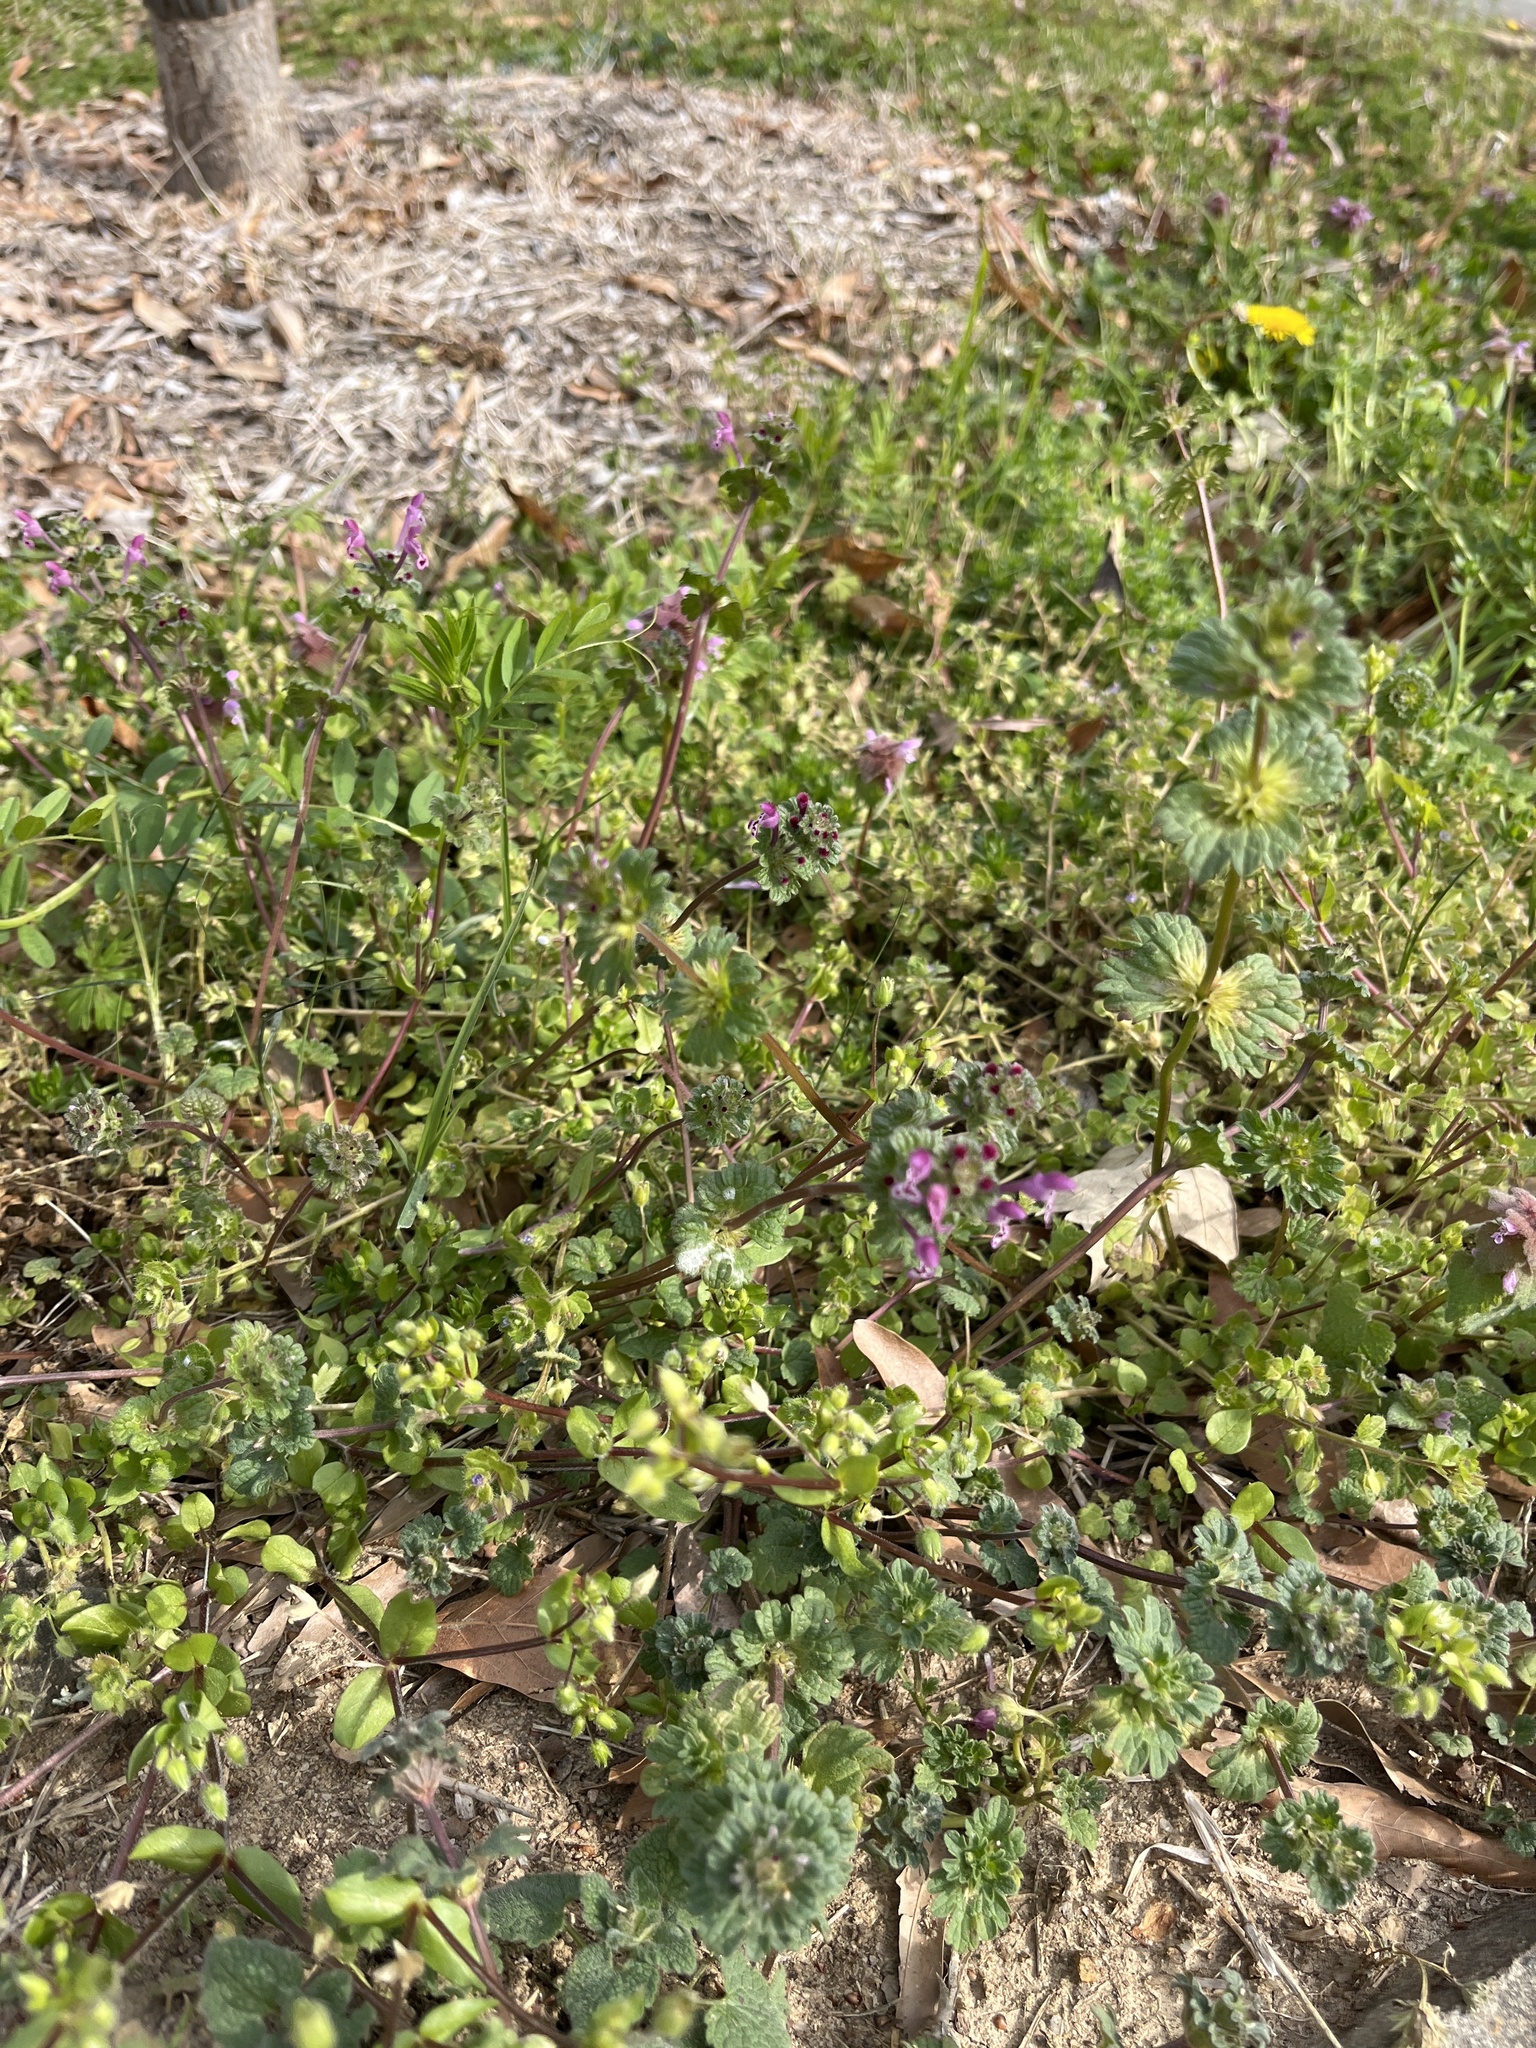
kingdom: Plantae
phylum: Tracheophyta
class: Magnoliopsida
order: Lamiales
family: Lamiaceae
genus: Lamium
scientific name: Lamium amplexicaule
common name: Henbit dead-nettle
